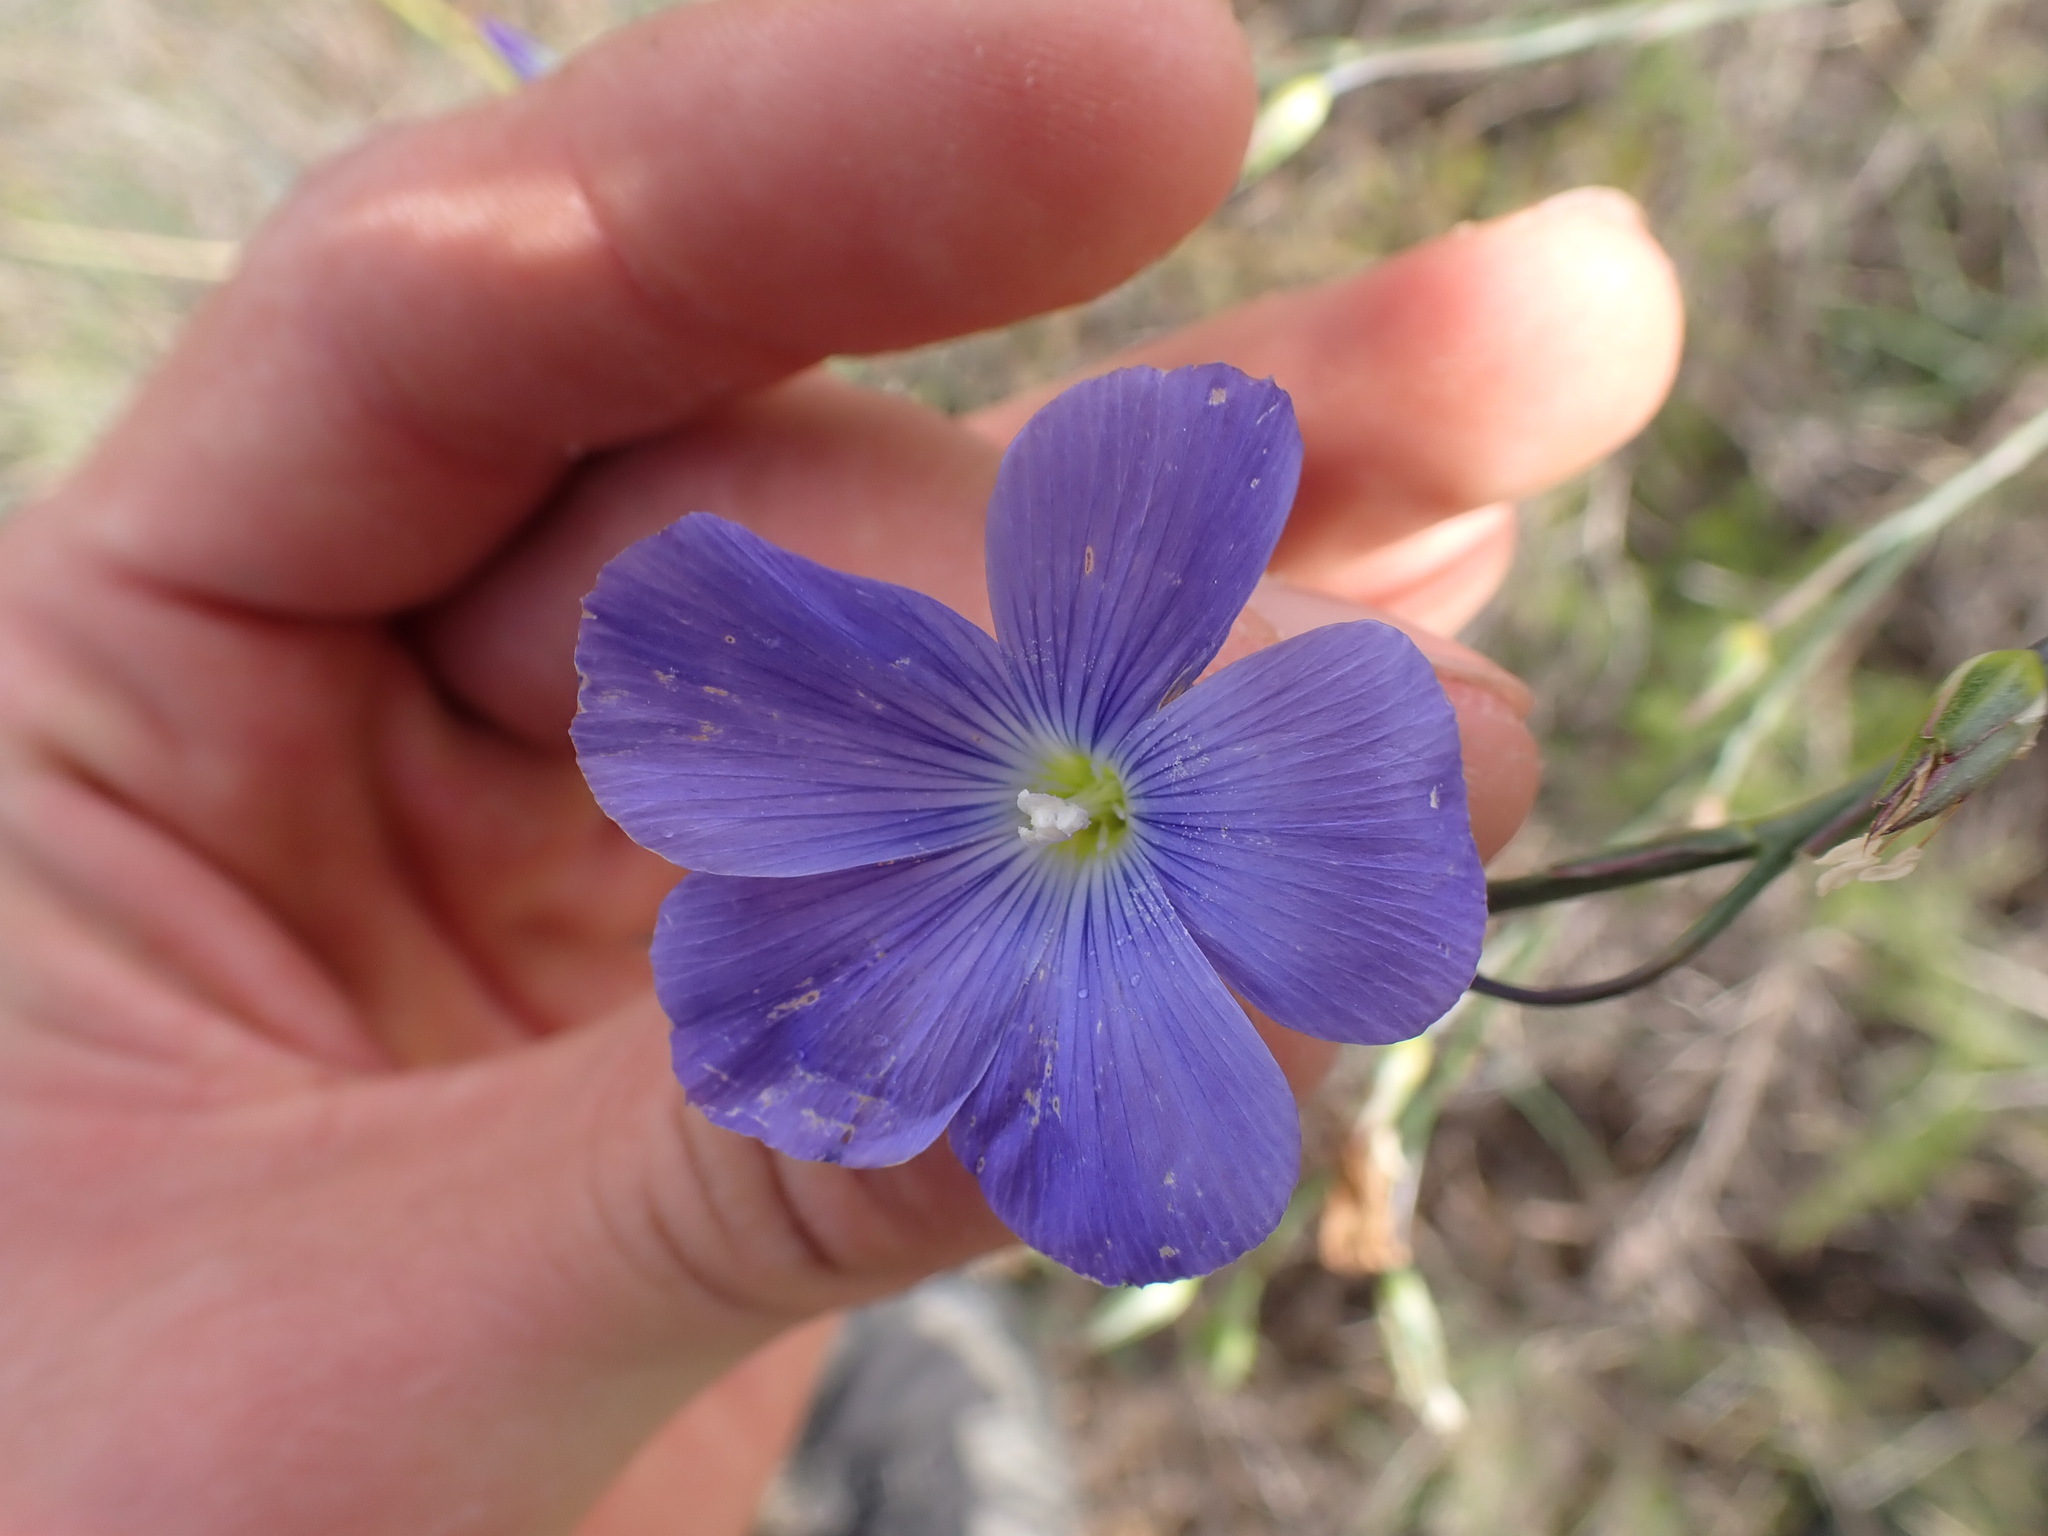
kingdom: Plantae
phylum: Tracheophyta
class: Magnoliopsida
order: Malpighiales
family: Linaceae
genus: Linum
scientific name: Linum narbonense
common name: Flax
